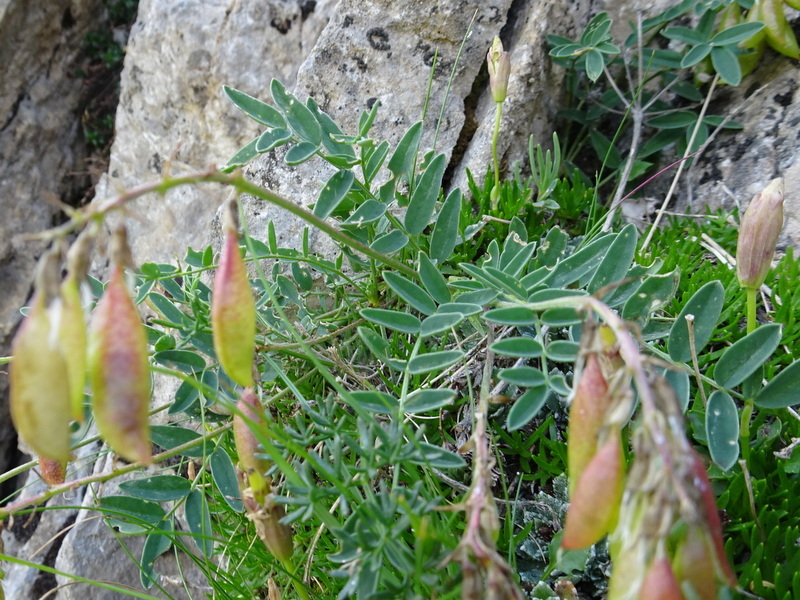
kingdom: Plantae
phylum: Tracheophyta
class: Magnoliopsida
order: Fabales
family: Fabaceae
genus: Astragalus
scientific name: Astragalus australis
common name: Indian milk-vetch
